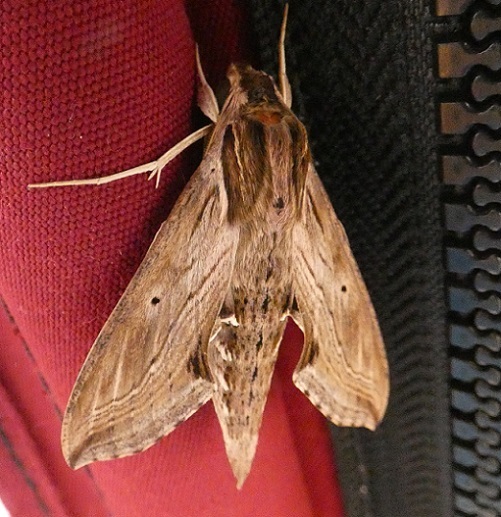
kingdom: Animalia
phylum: Arthropoda
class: Insecta
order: Lepidoptera
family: Sphingidae
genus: Hippotion
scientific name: Hippotion velox
